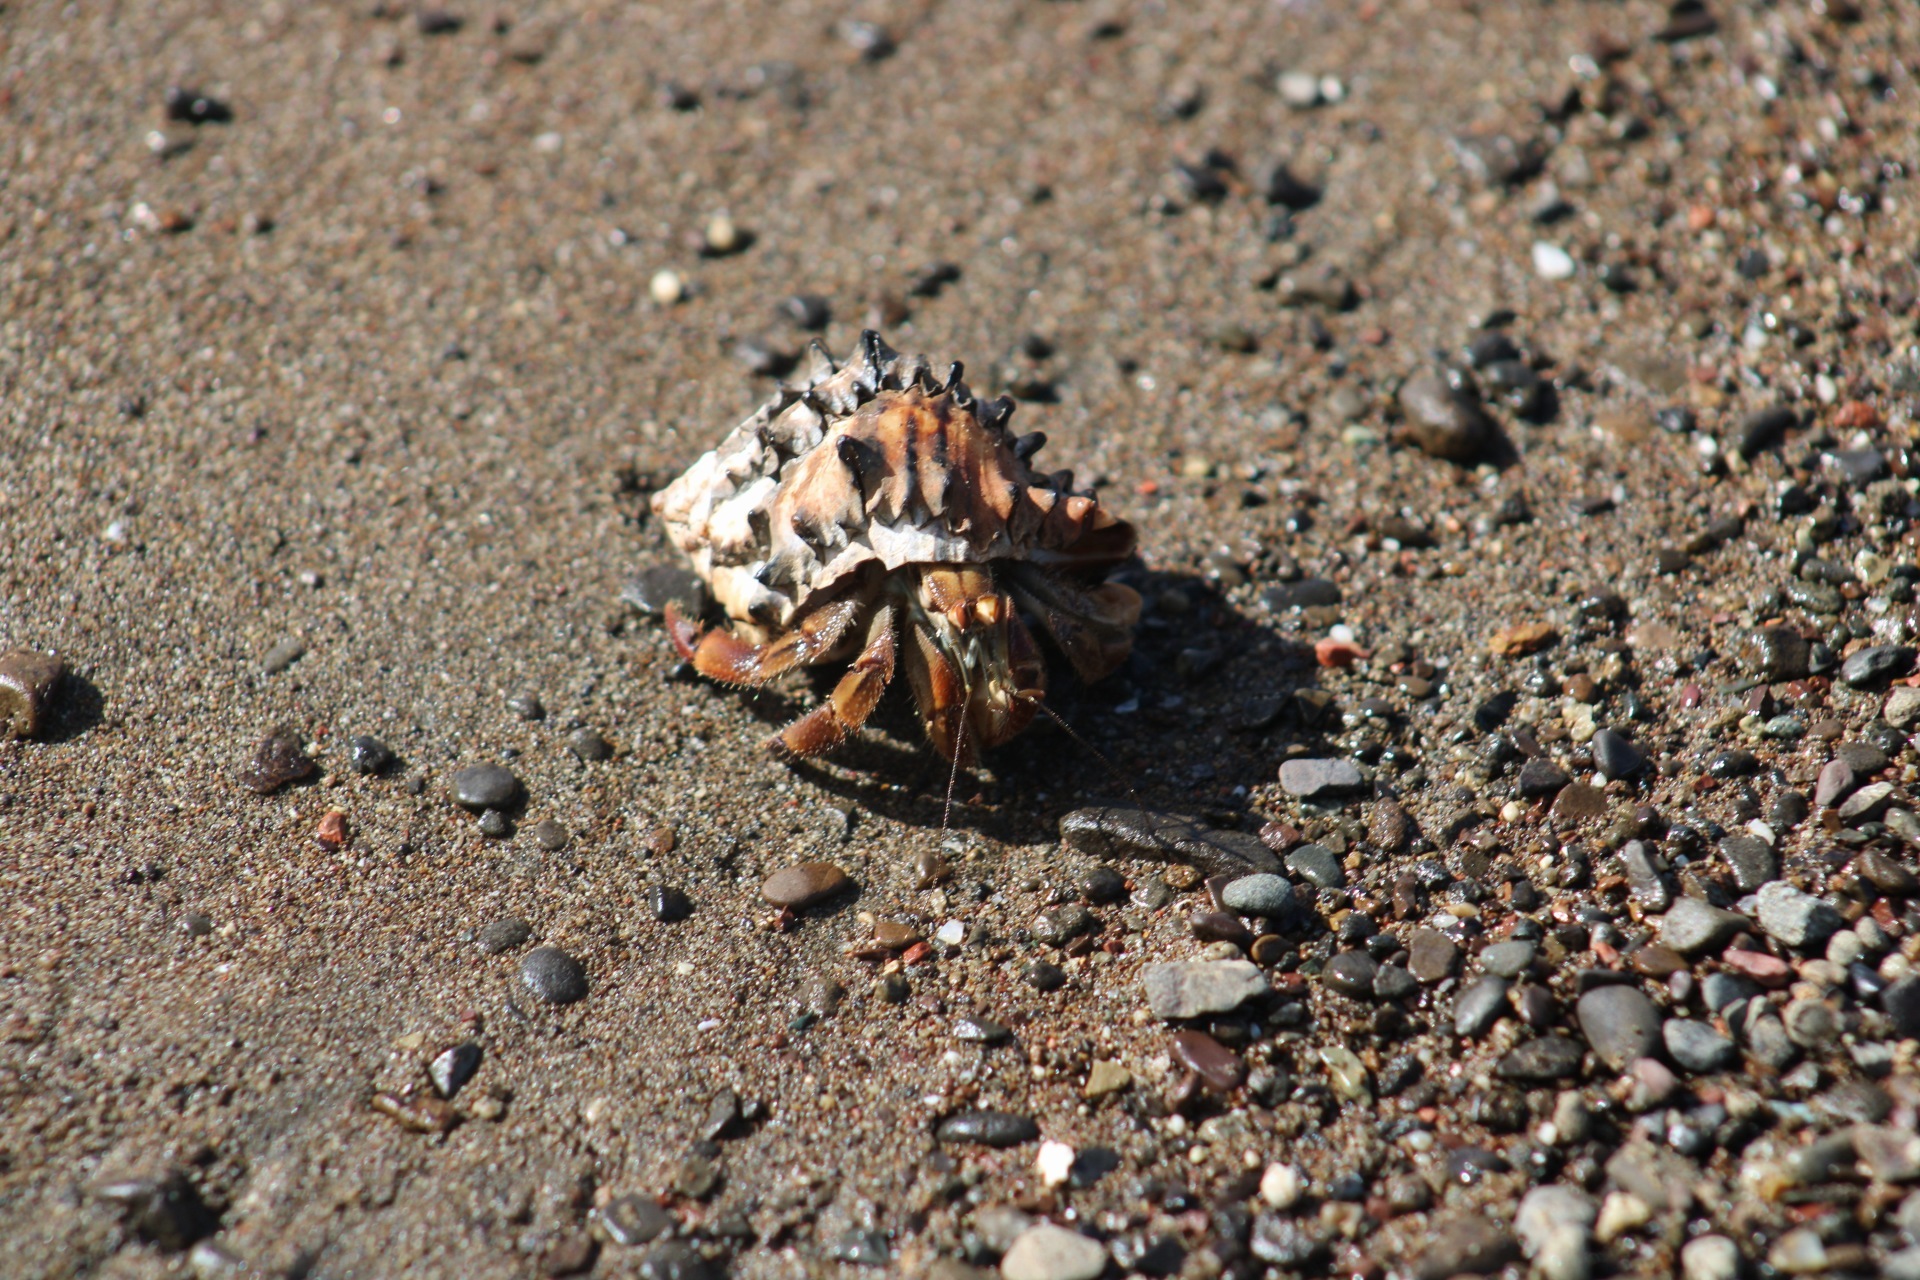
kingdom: Animalia
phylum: Arthropoda
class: Malacostraca
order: Decapoda
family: Coenobitidae
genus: Coenobita
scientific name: Coenobita compressus
